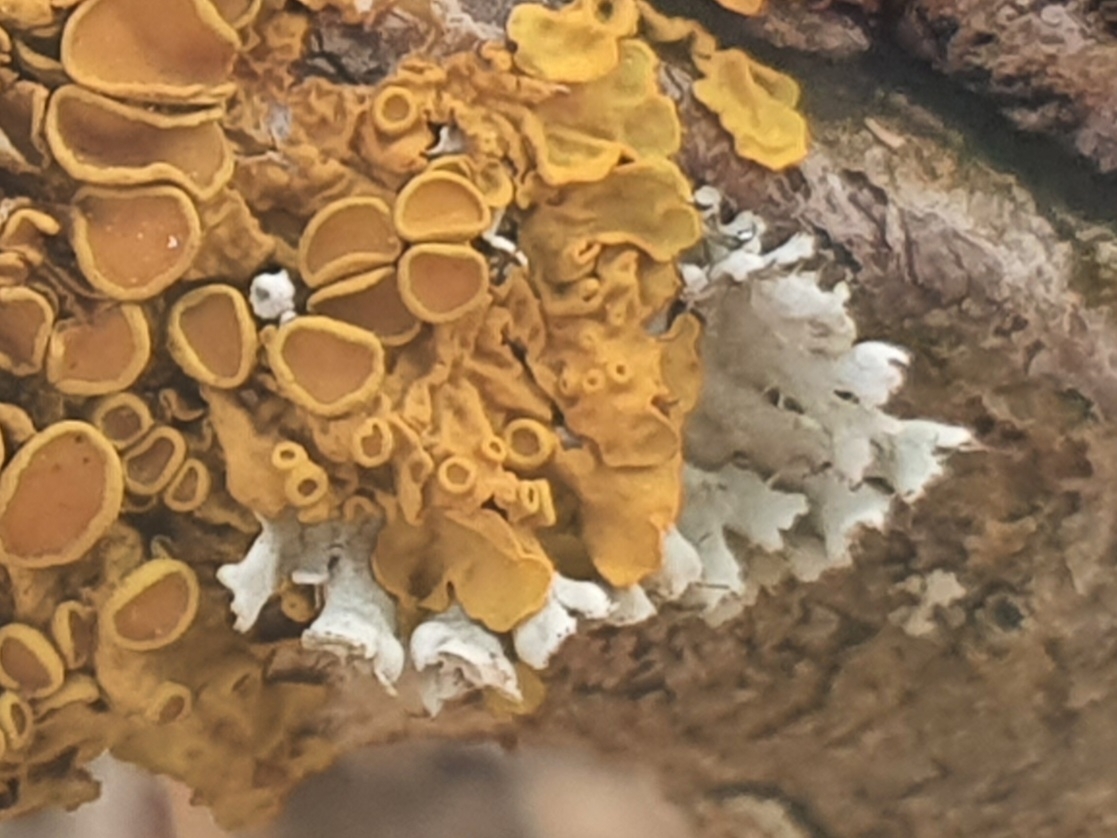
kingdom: Fungi
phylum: Ascomycota
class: Lecanoromycetes
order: Caliciales
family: Physciaceae
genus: Physcia
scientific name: Physcia adscendens
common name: Hooded rosette lichen
